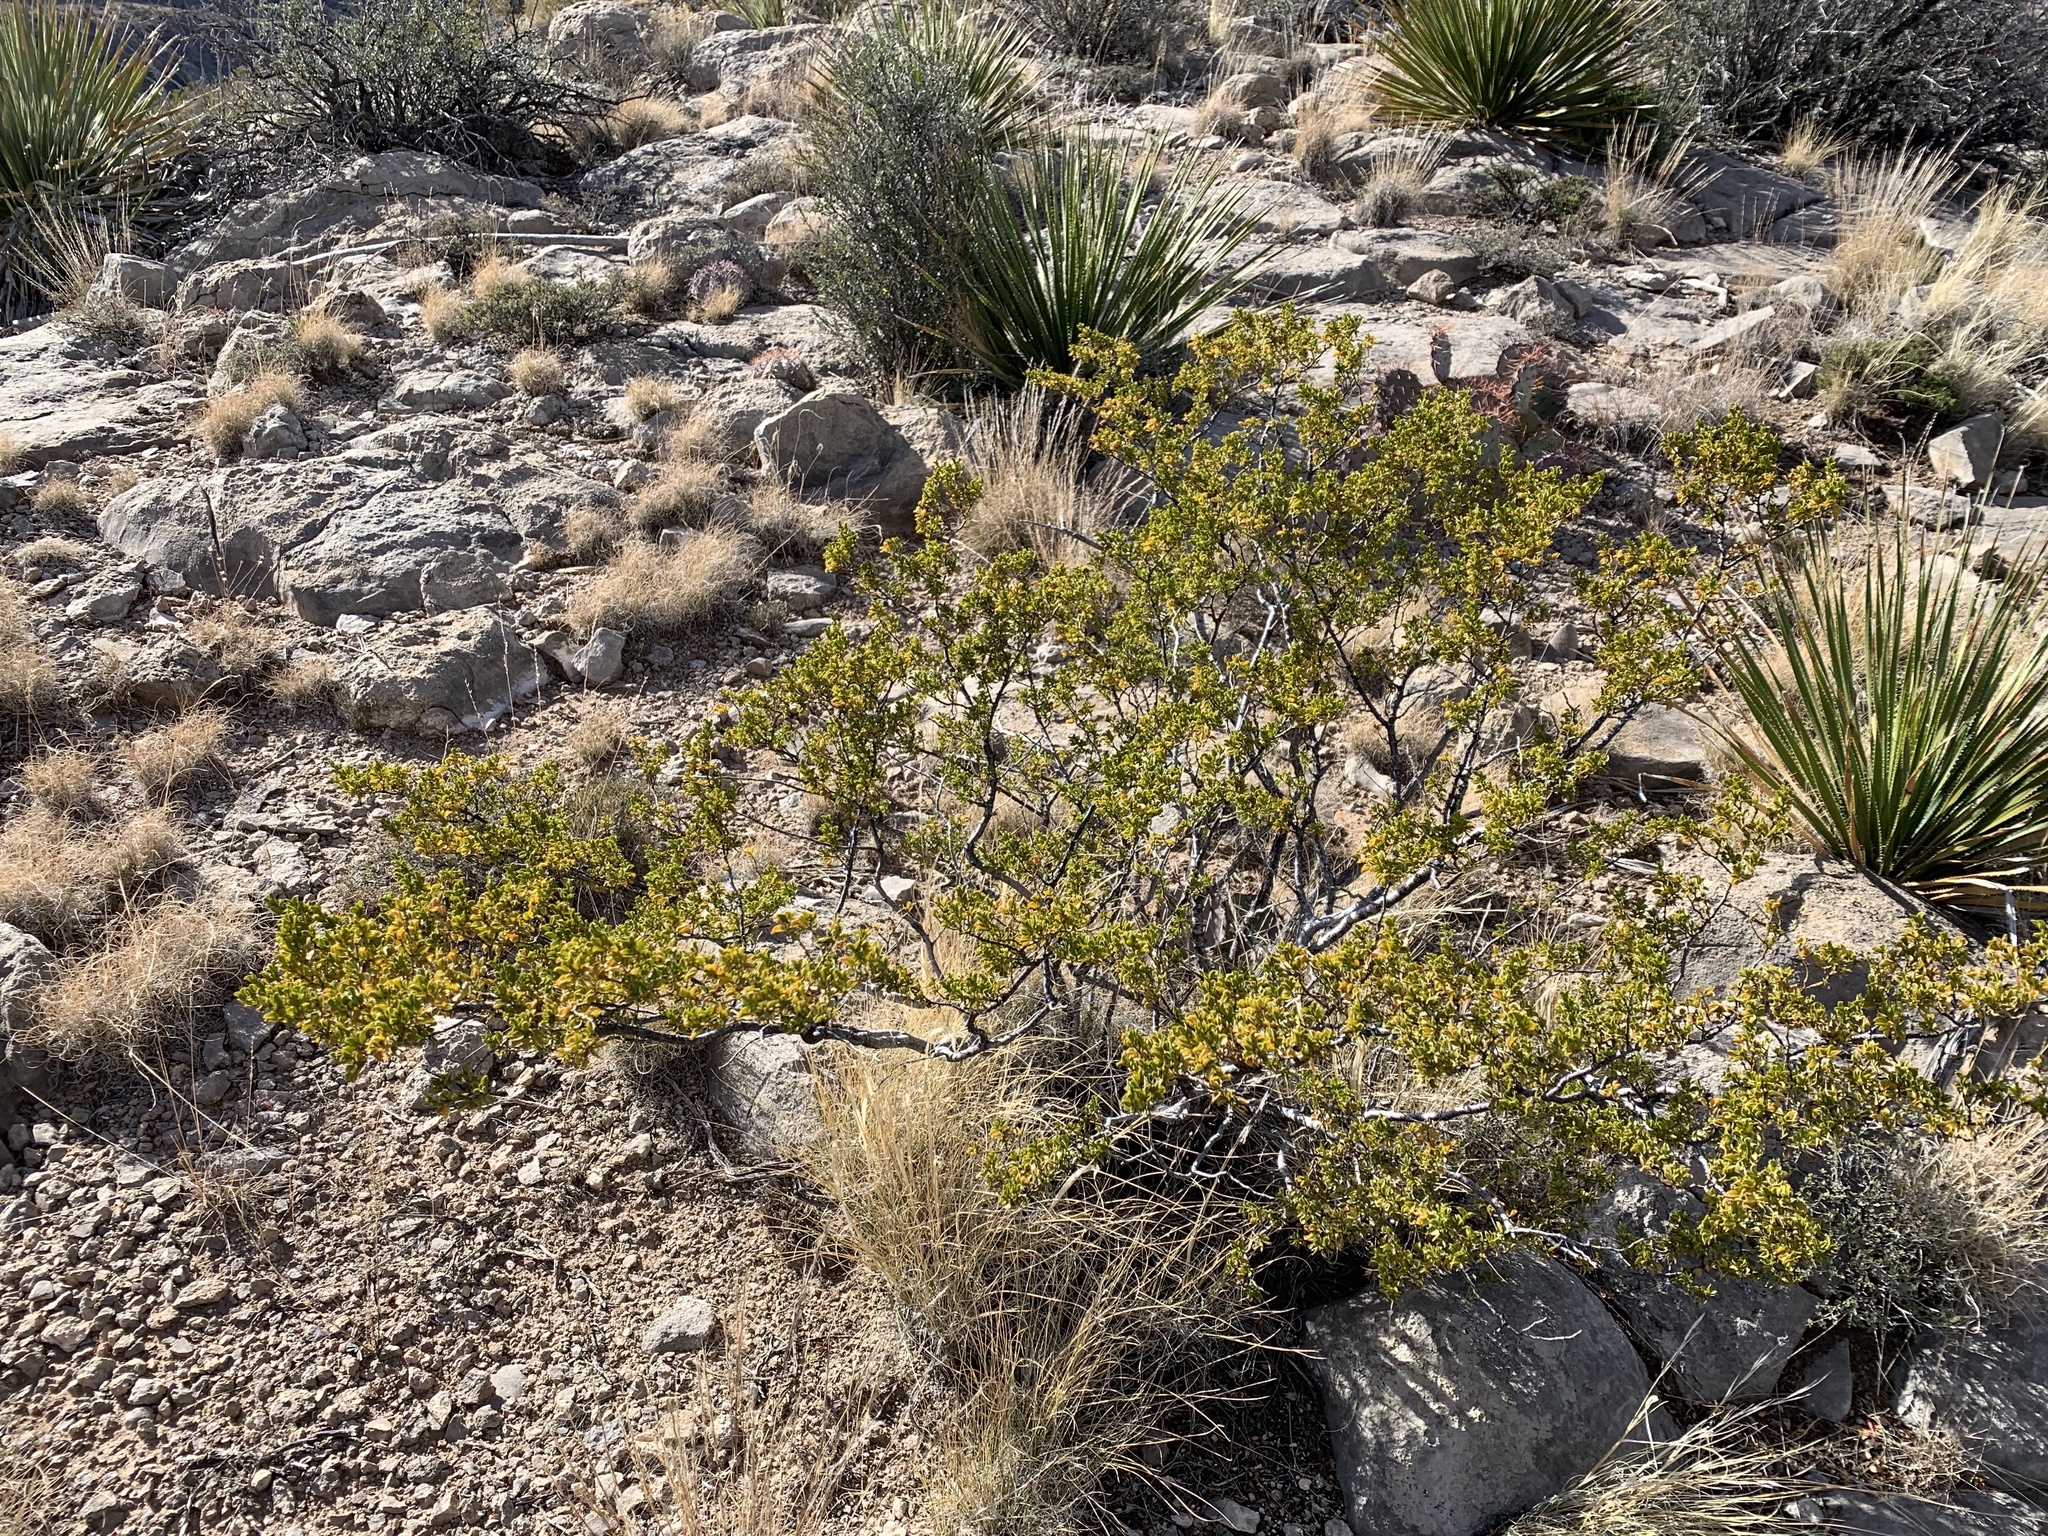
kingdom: Plantae
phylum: Tracheophyta
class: Magnoliopsida
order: Zygophyllales
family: Zygophyllaceae
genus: Larrea
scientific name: Larrea tridentata
